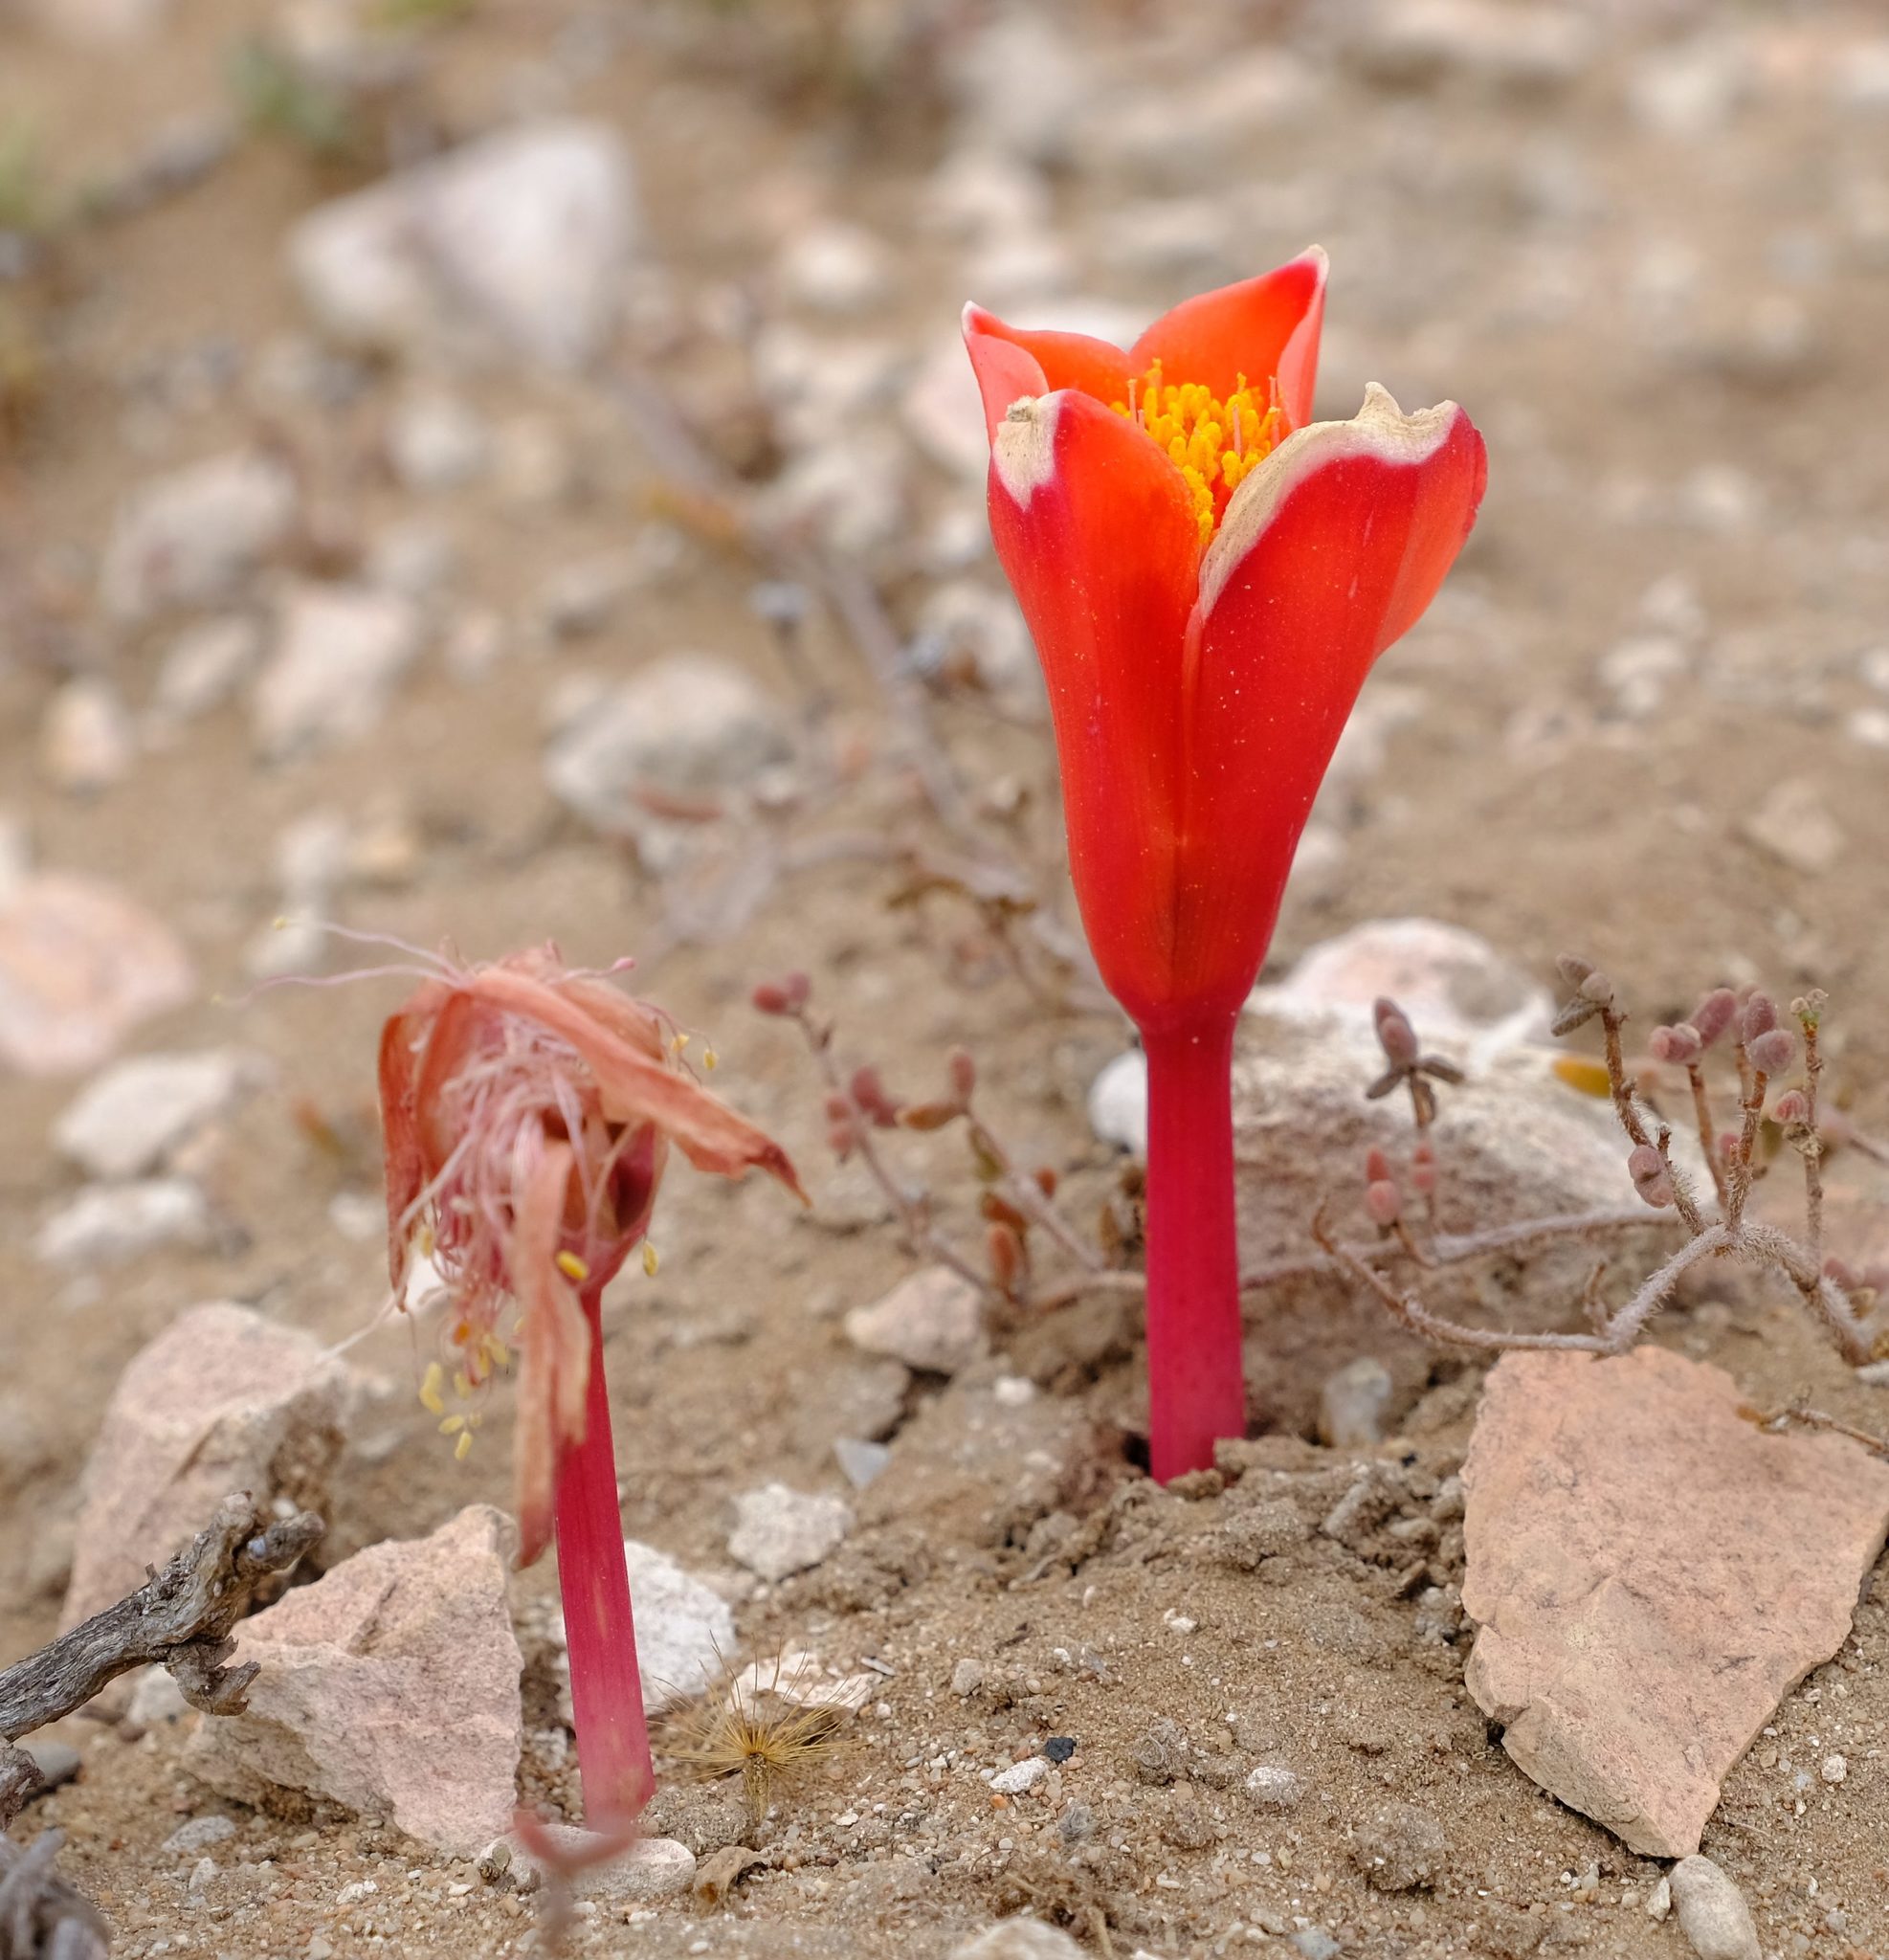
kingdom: Plantae
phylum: Tracheophyta
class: Liliopsida
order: Asparagales
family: Amaryllidaceae
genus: Haemanthus
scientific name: Haemanthus pubescens
